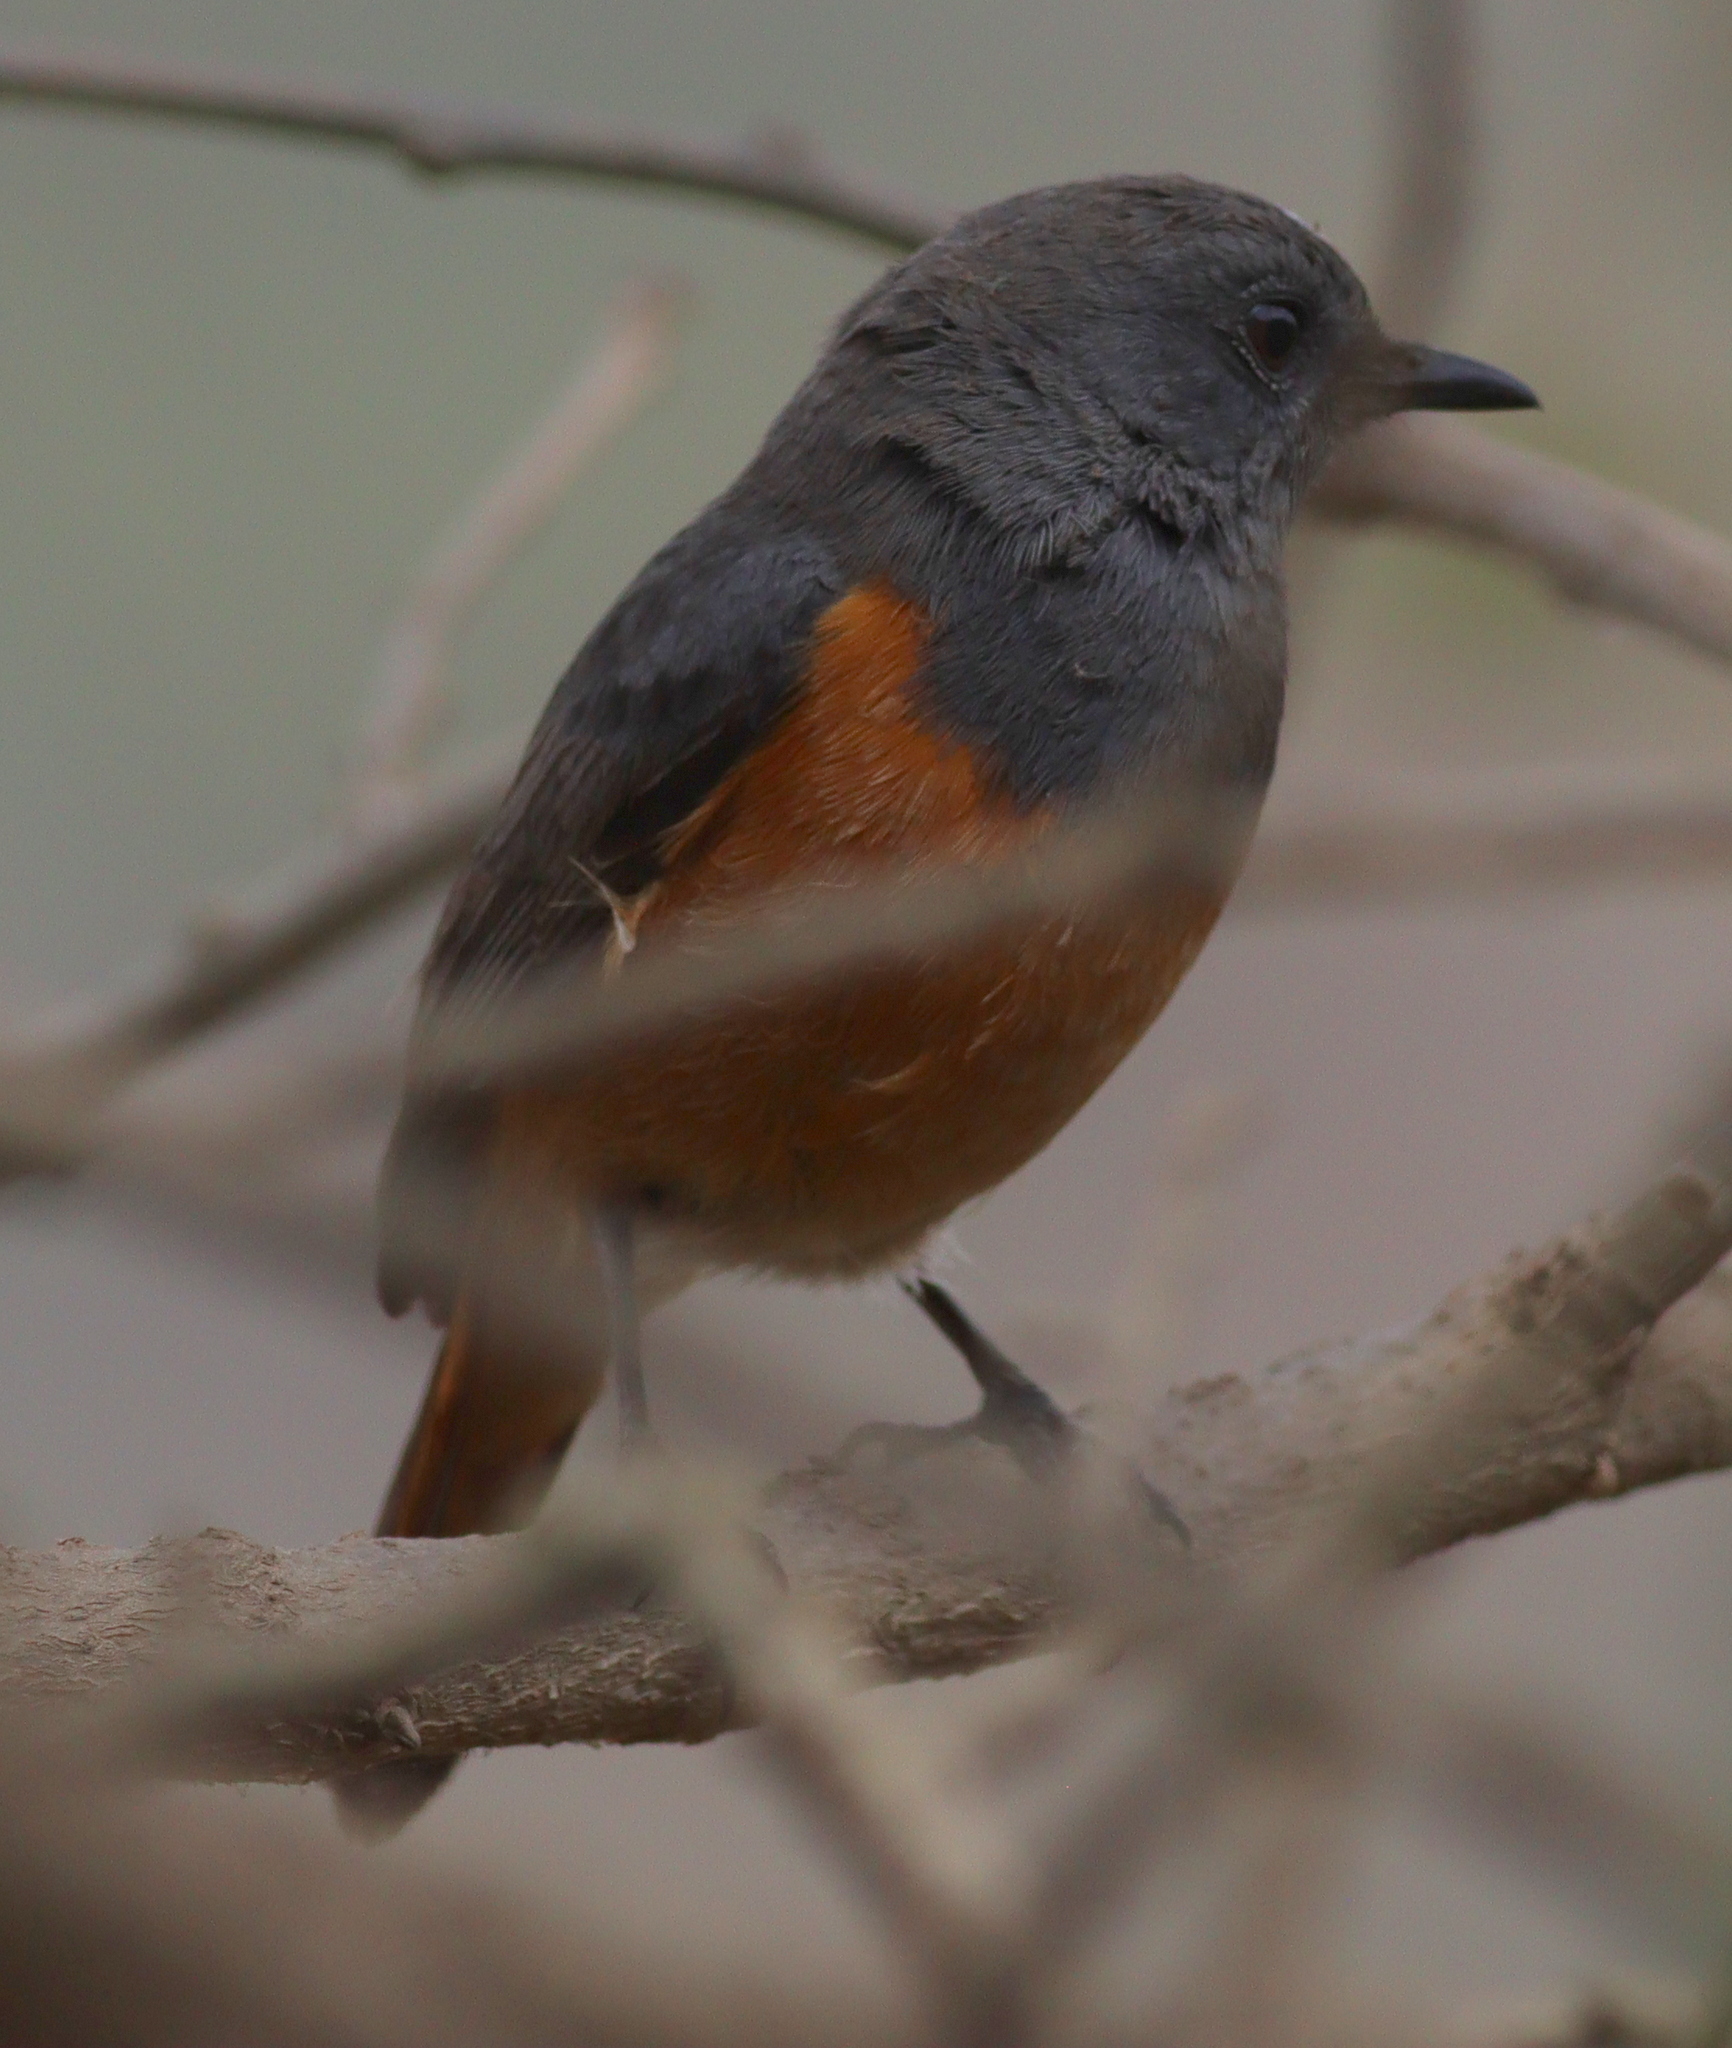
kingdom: Animalia
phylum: Chordata
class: Aves
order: Passeriformes
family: Muscicapidae
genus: Monticola
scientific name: Monticola rufocinereus
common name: Little rock thrush
